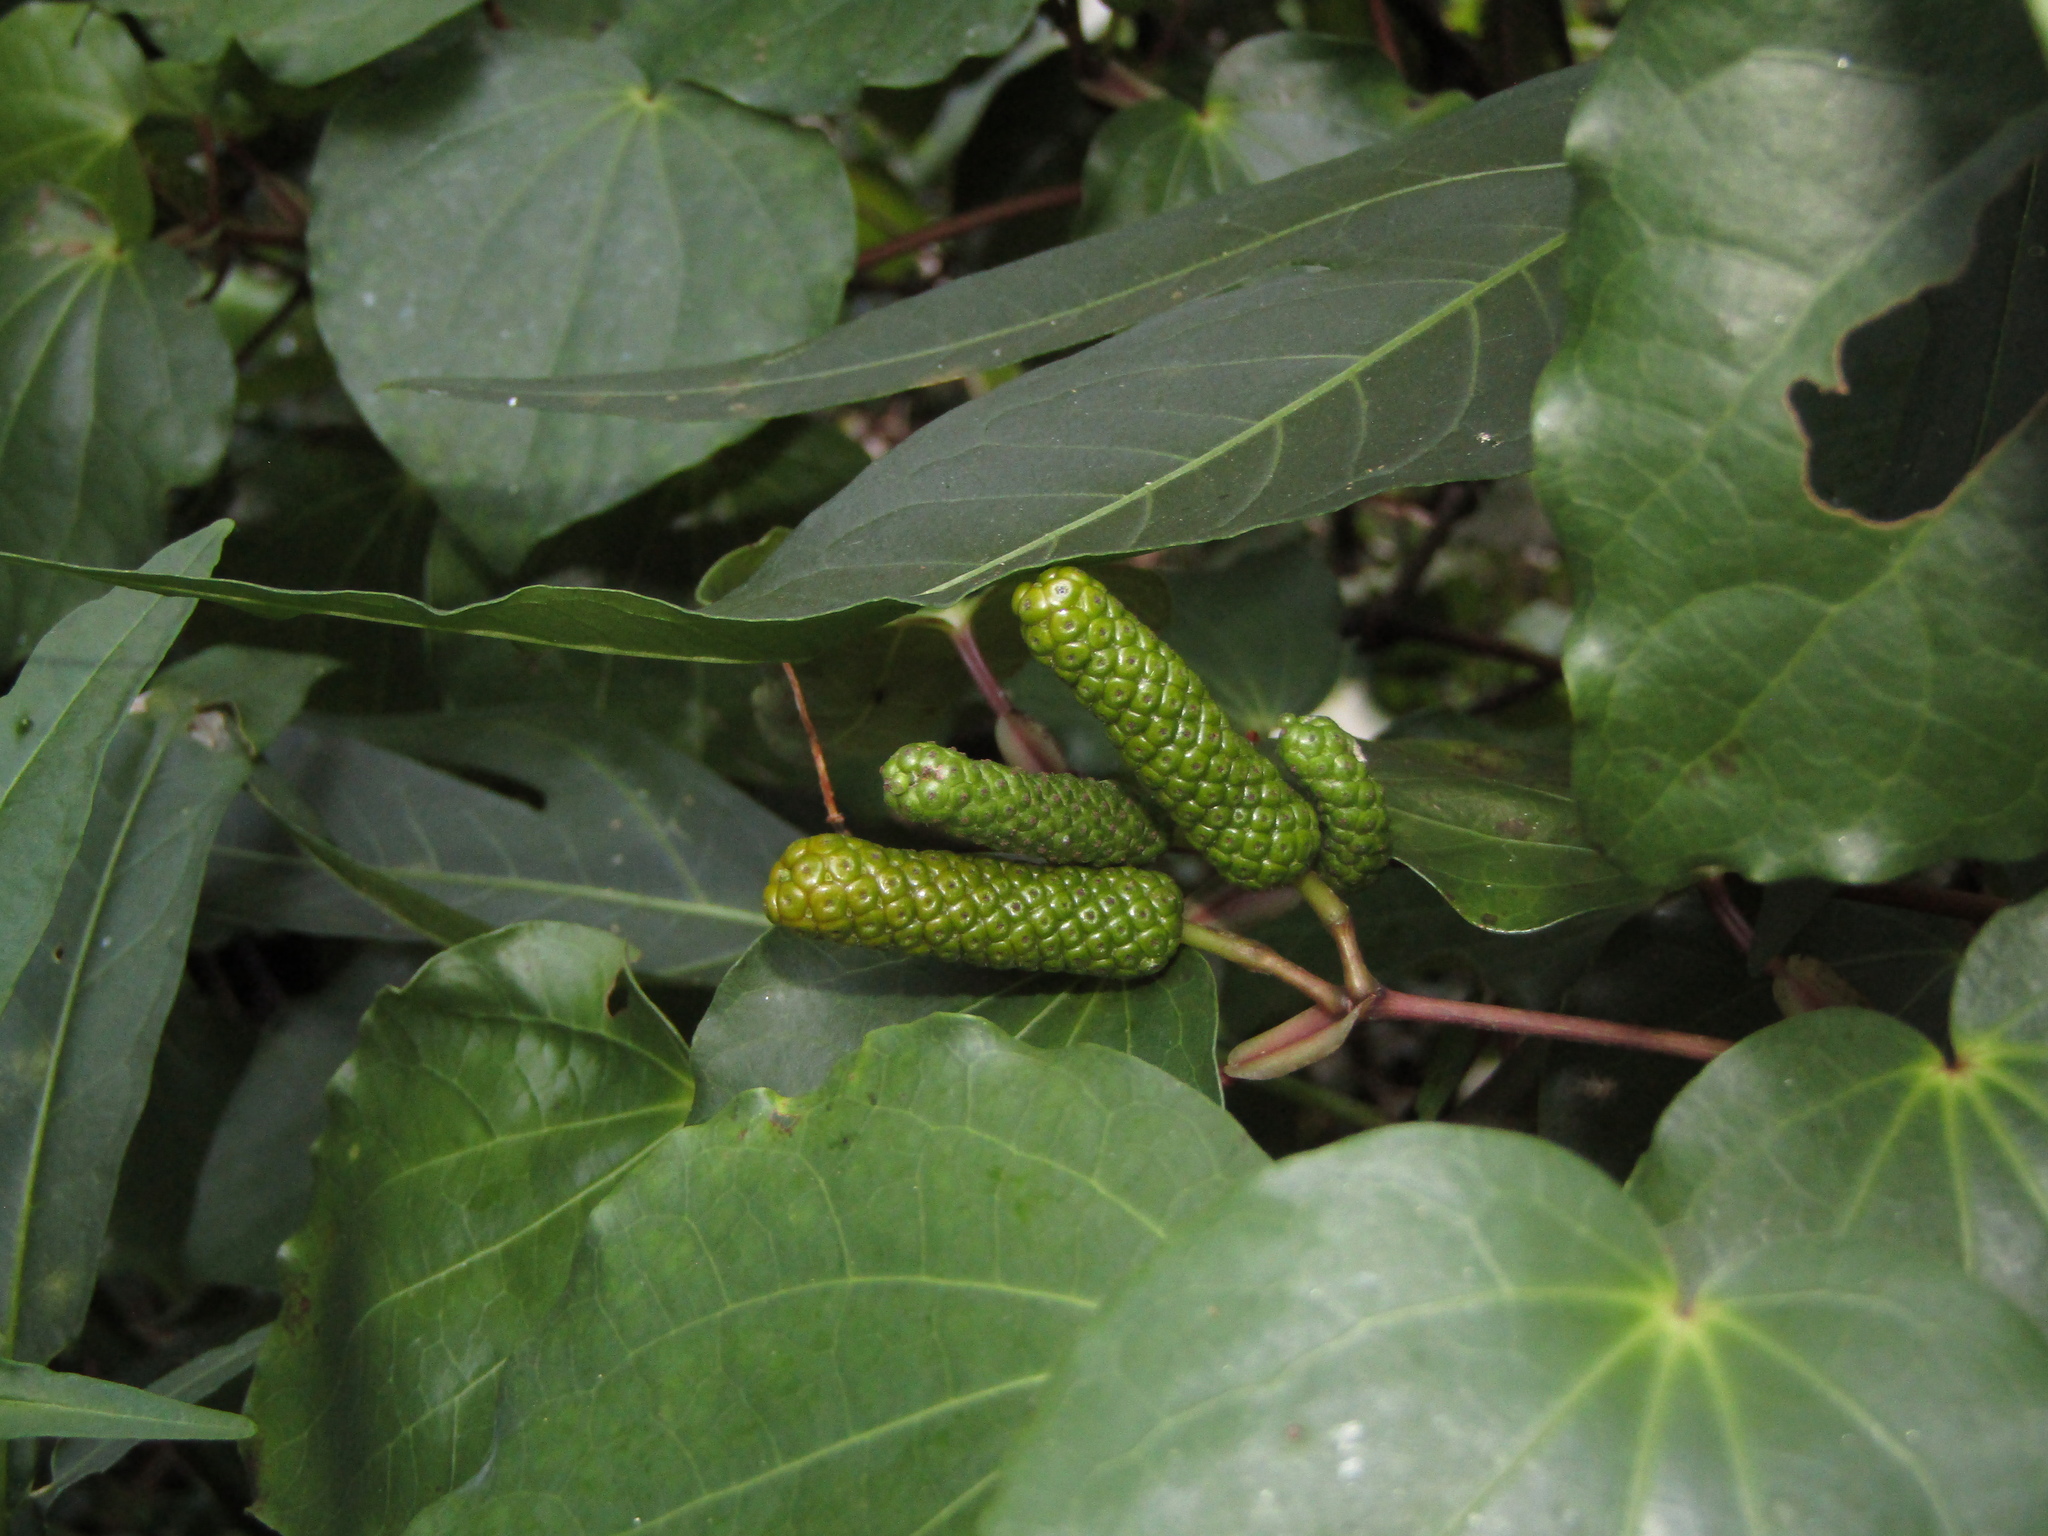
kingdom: Plantae
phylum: Tracheophyta
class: Magnoliopsida
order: Piperales
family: Piperaceae
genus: Macropiper
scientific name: Macropiper excelsum
